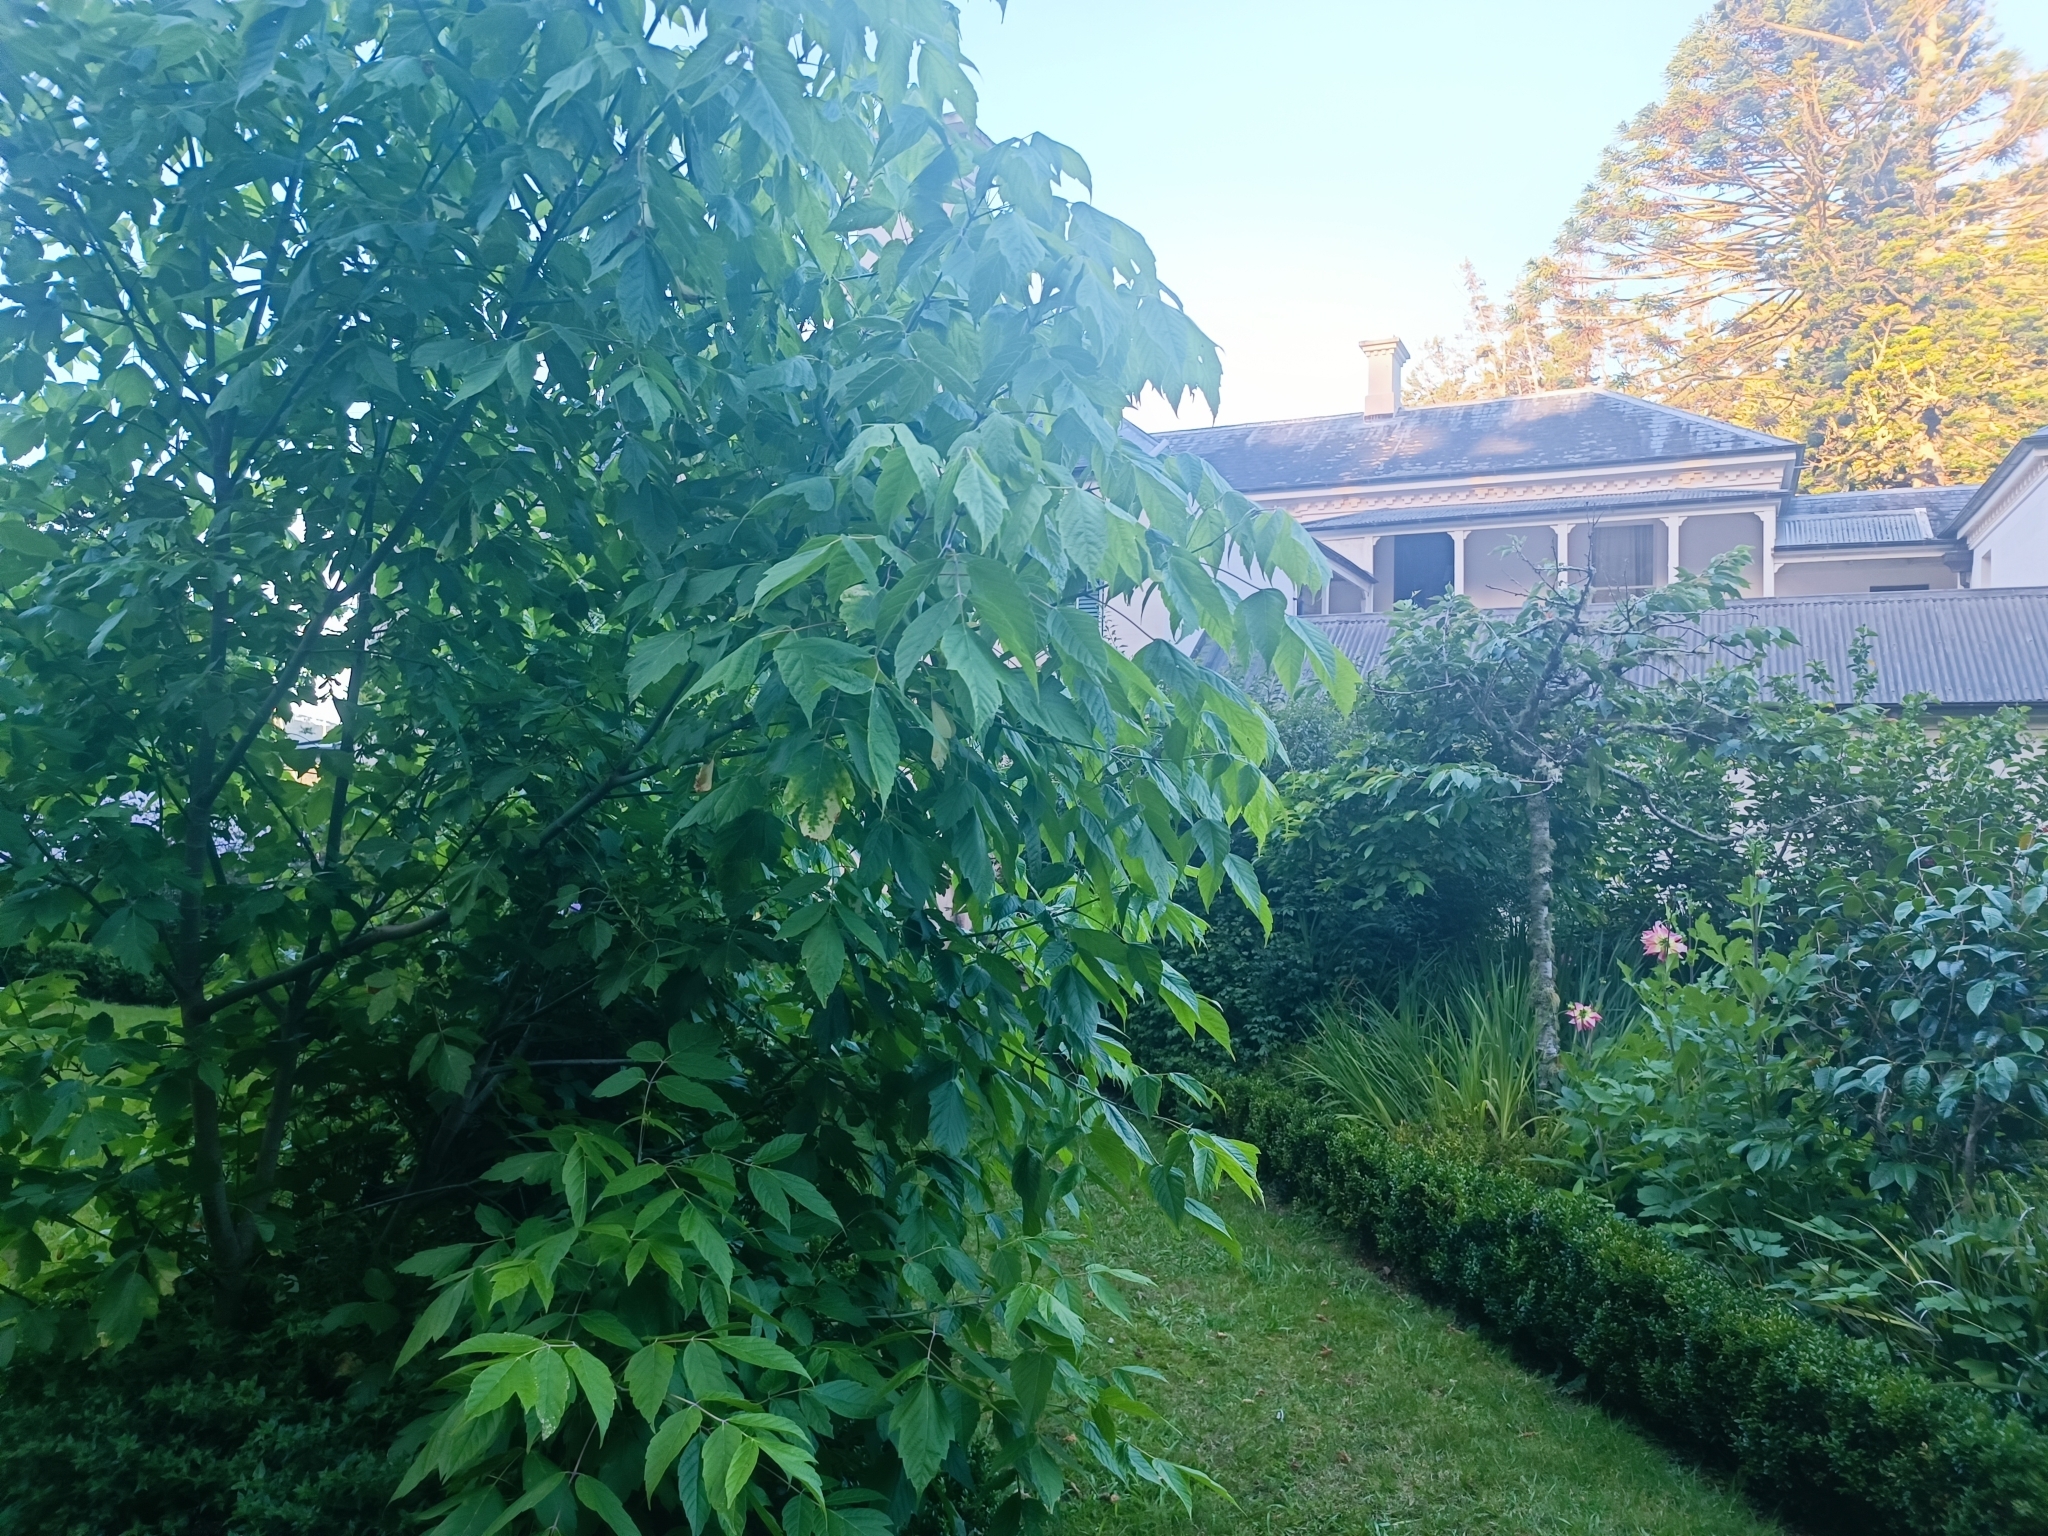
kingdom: Plantae
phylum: Tracheophyta
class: Magnoliopsida
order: Sapindales
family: Sapindaceae
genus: Acer
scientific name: Acer negundo
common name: Ashleaf maple
